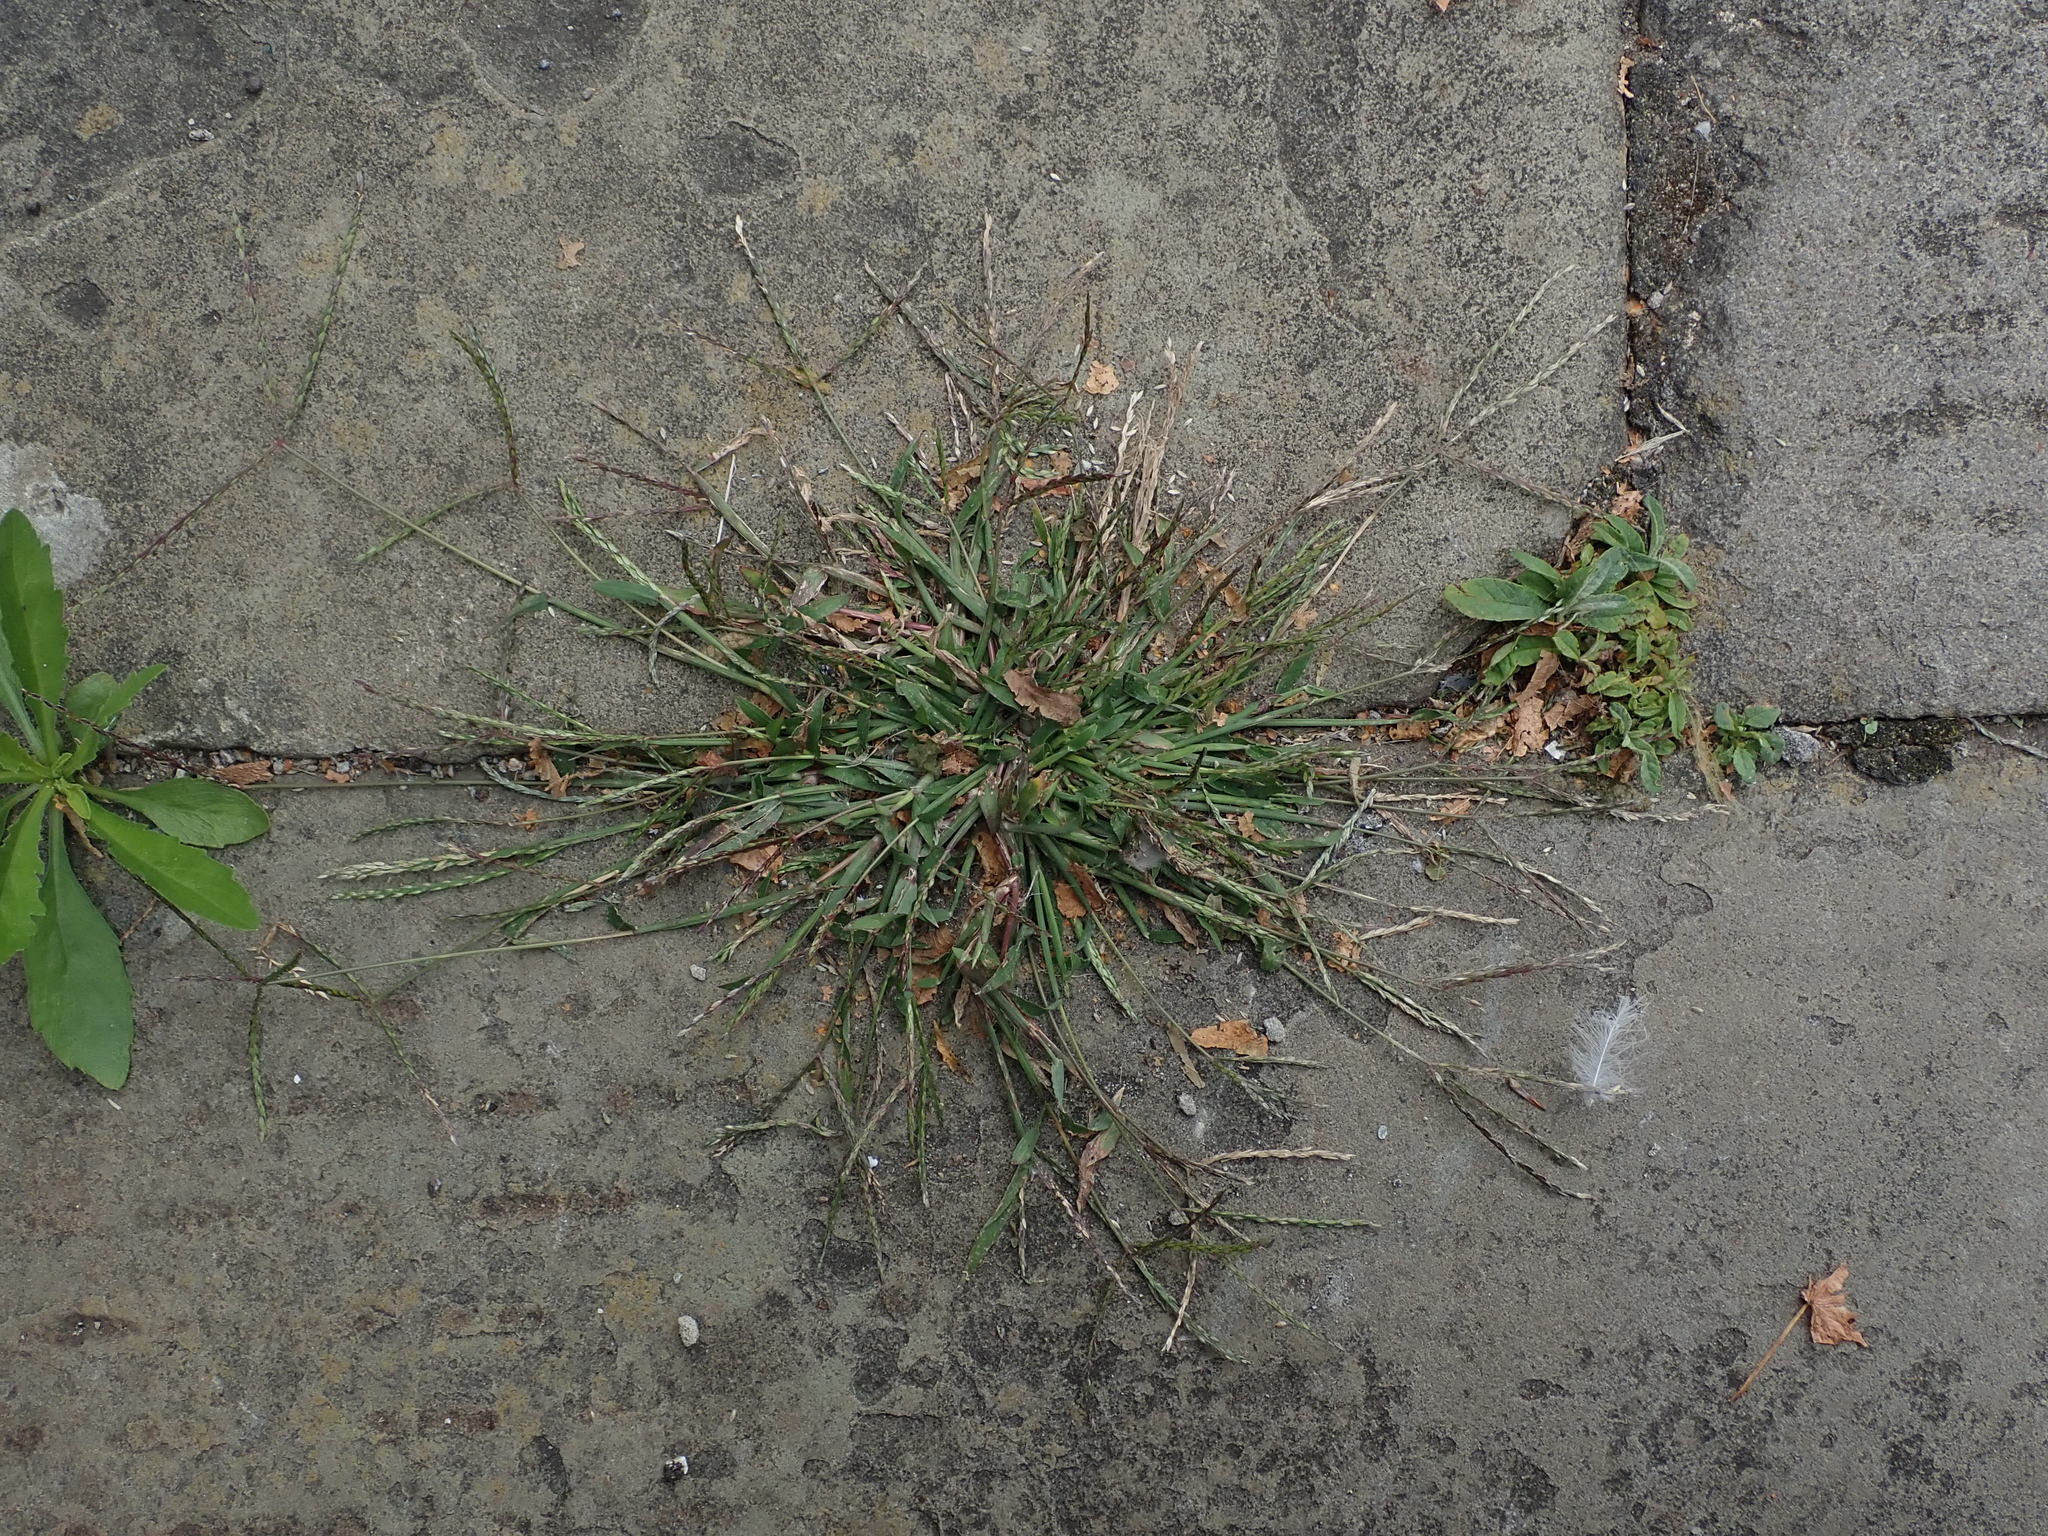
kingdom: Plantae
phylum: Tracheophyta
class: Liliopsida
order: Poales
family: Poaceae
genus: Digitaria
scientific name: Digitaria sanguinalis
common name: Hairy crabgrass
